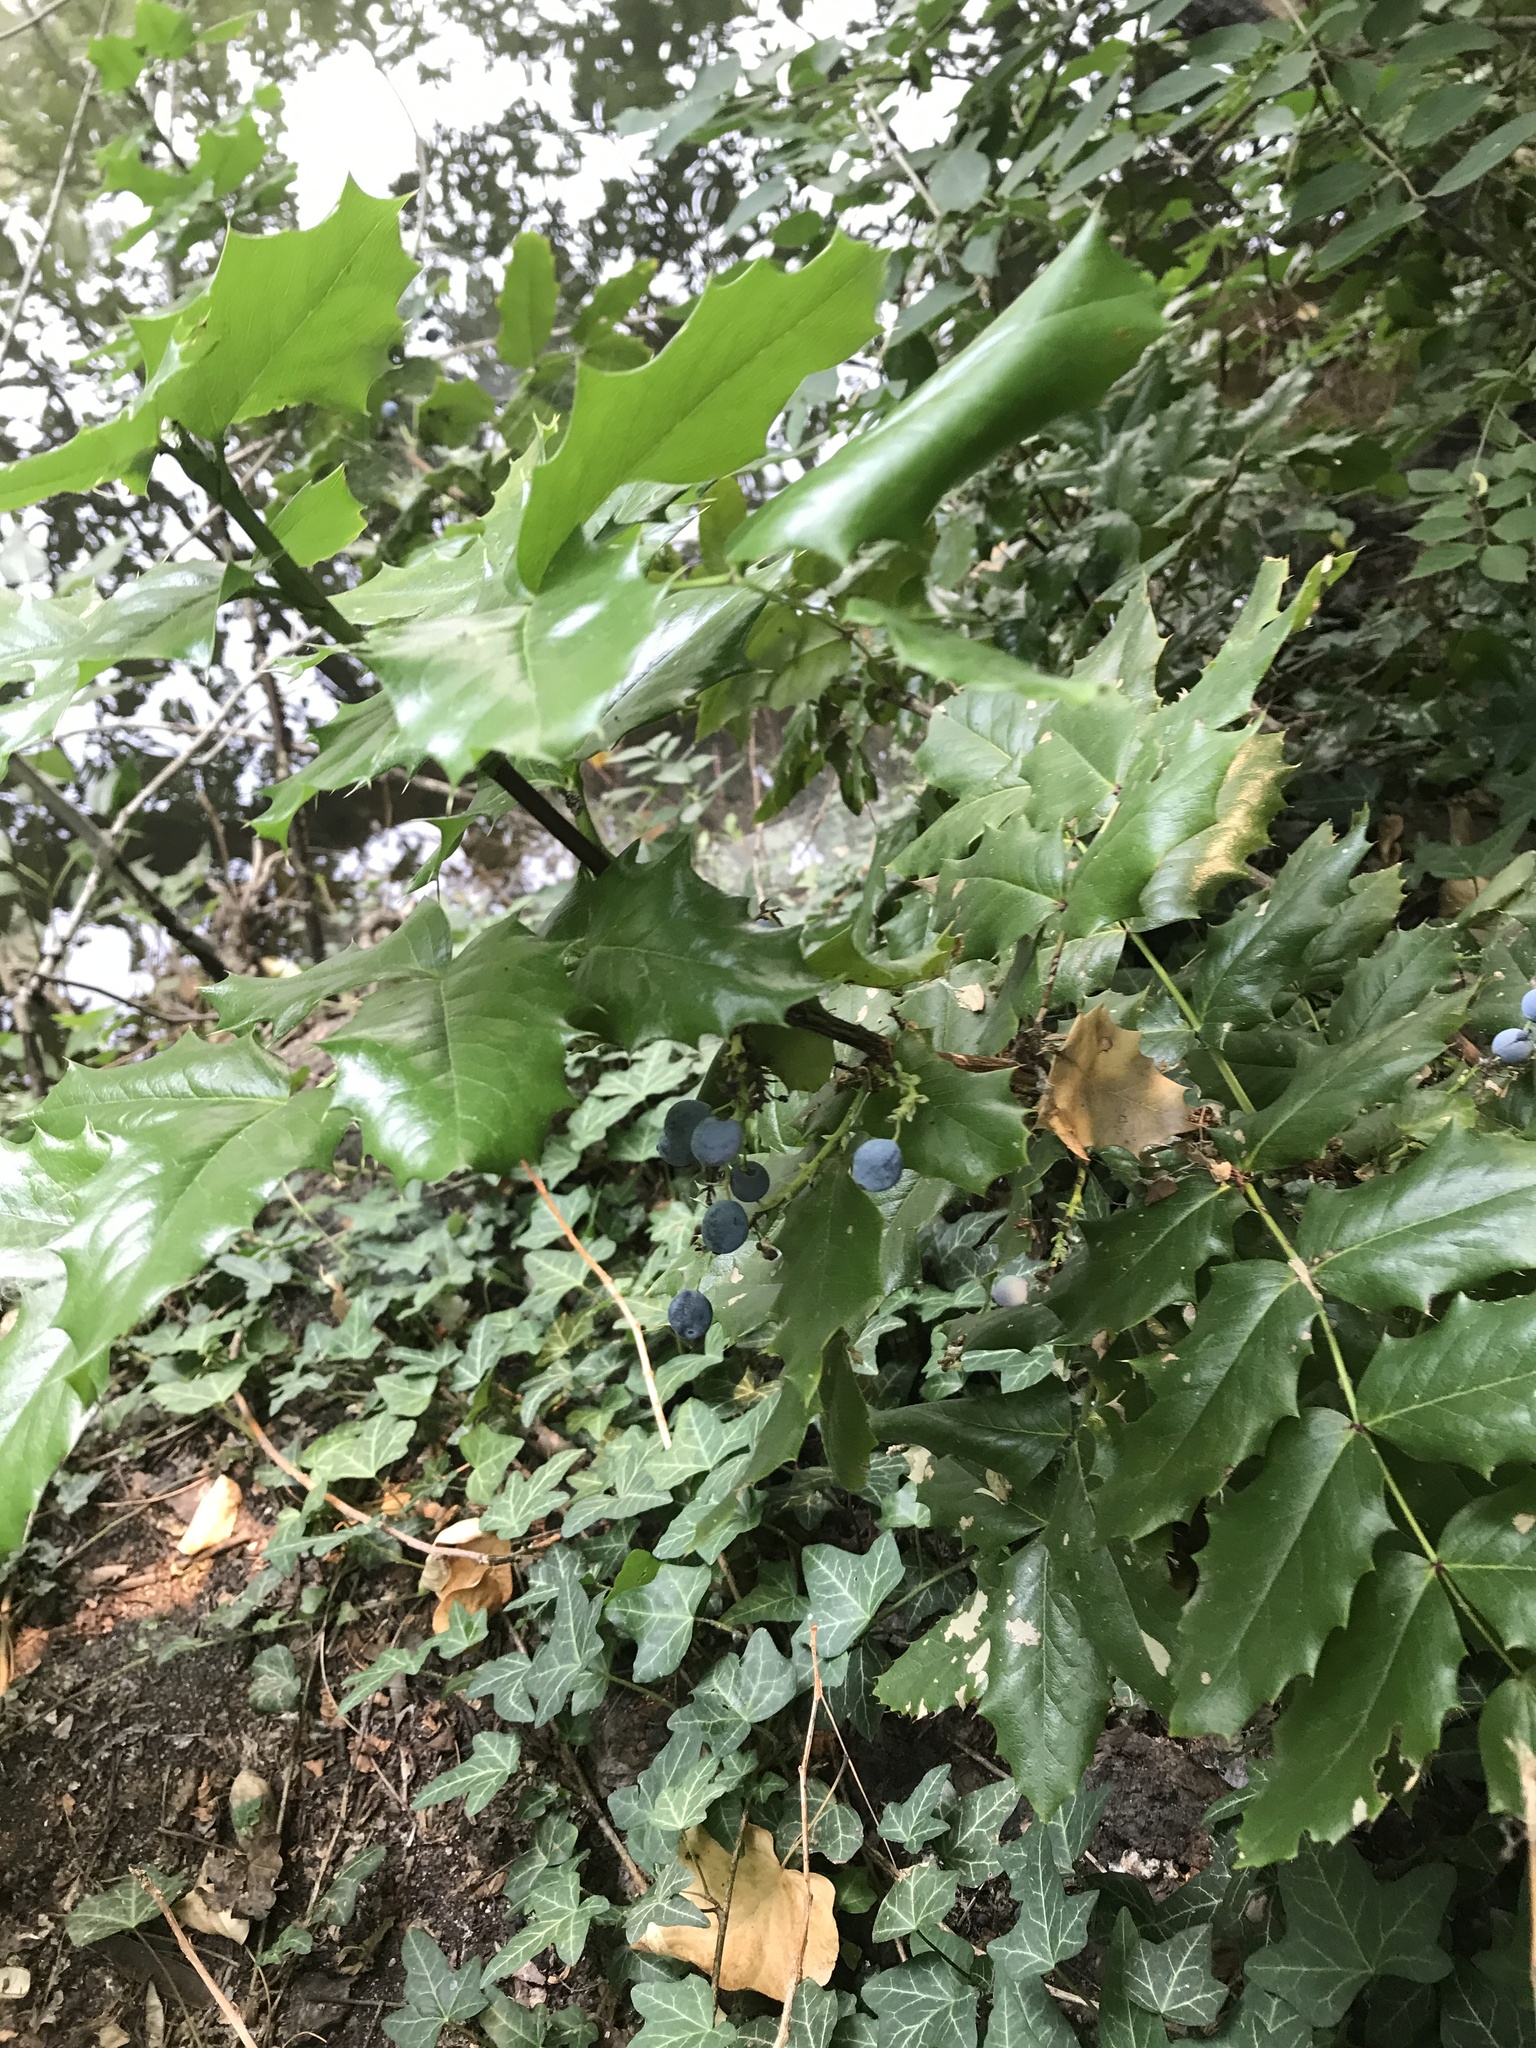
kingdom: Plantae
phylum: Tracheophyta
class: Magnoliopsida
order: Ranunculales
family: Berberidaceae
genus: Mahonia
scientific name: Mahonia aquifolium
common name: Oregon-grape
